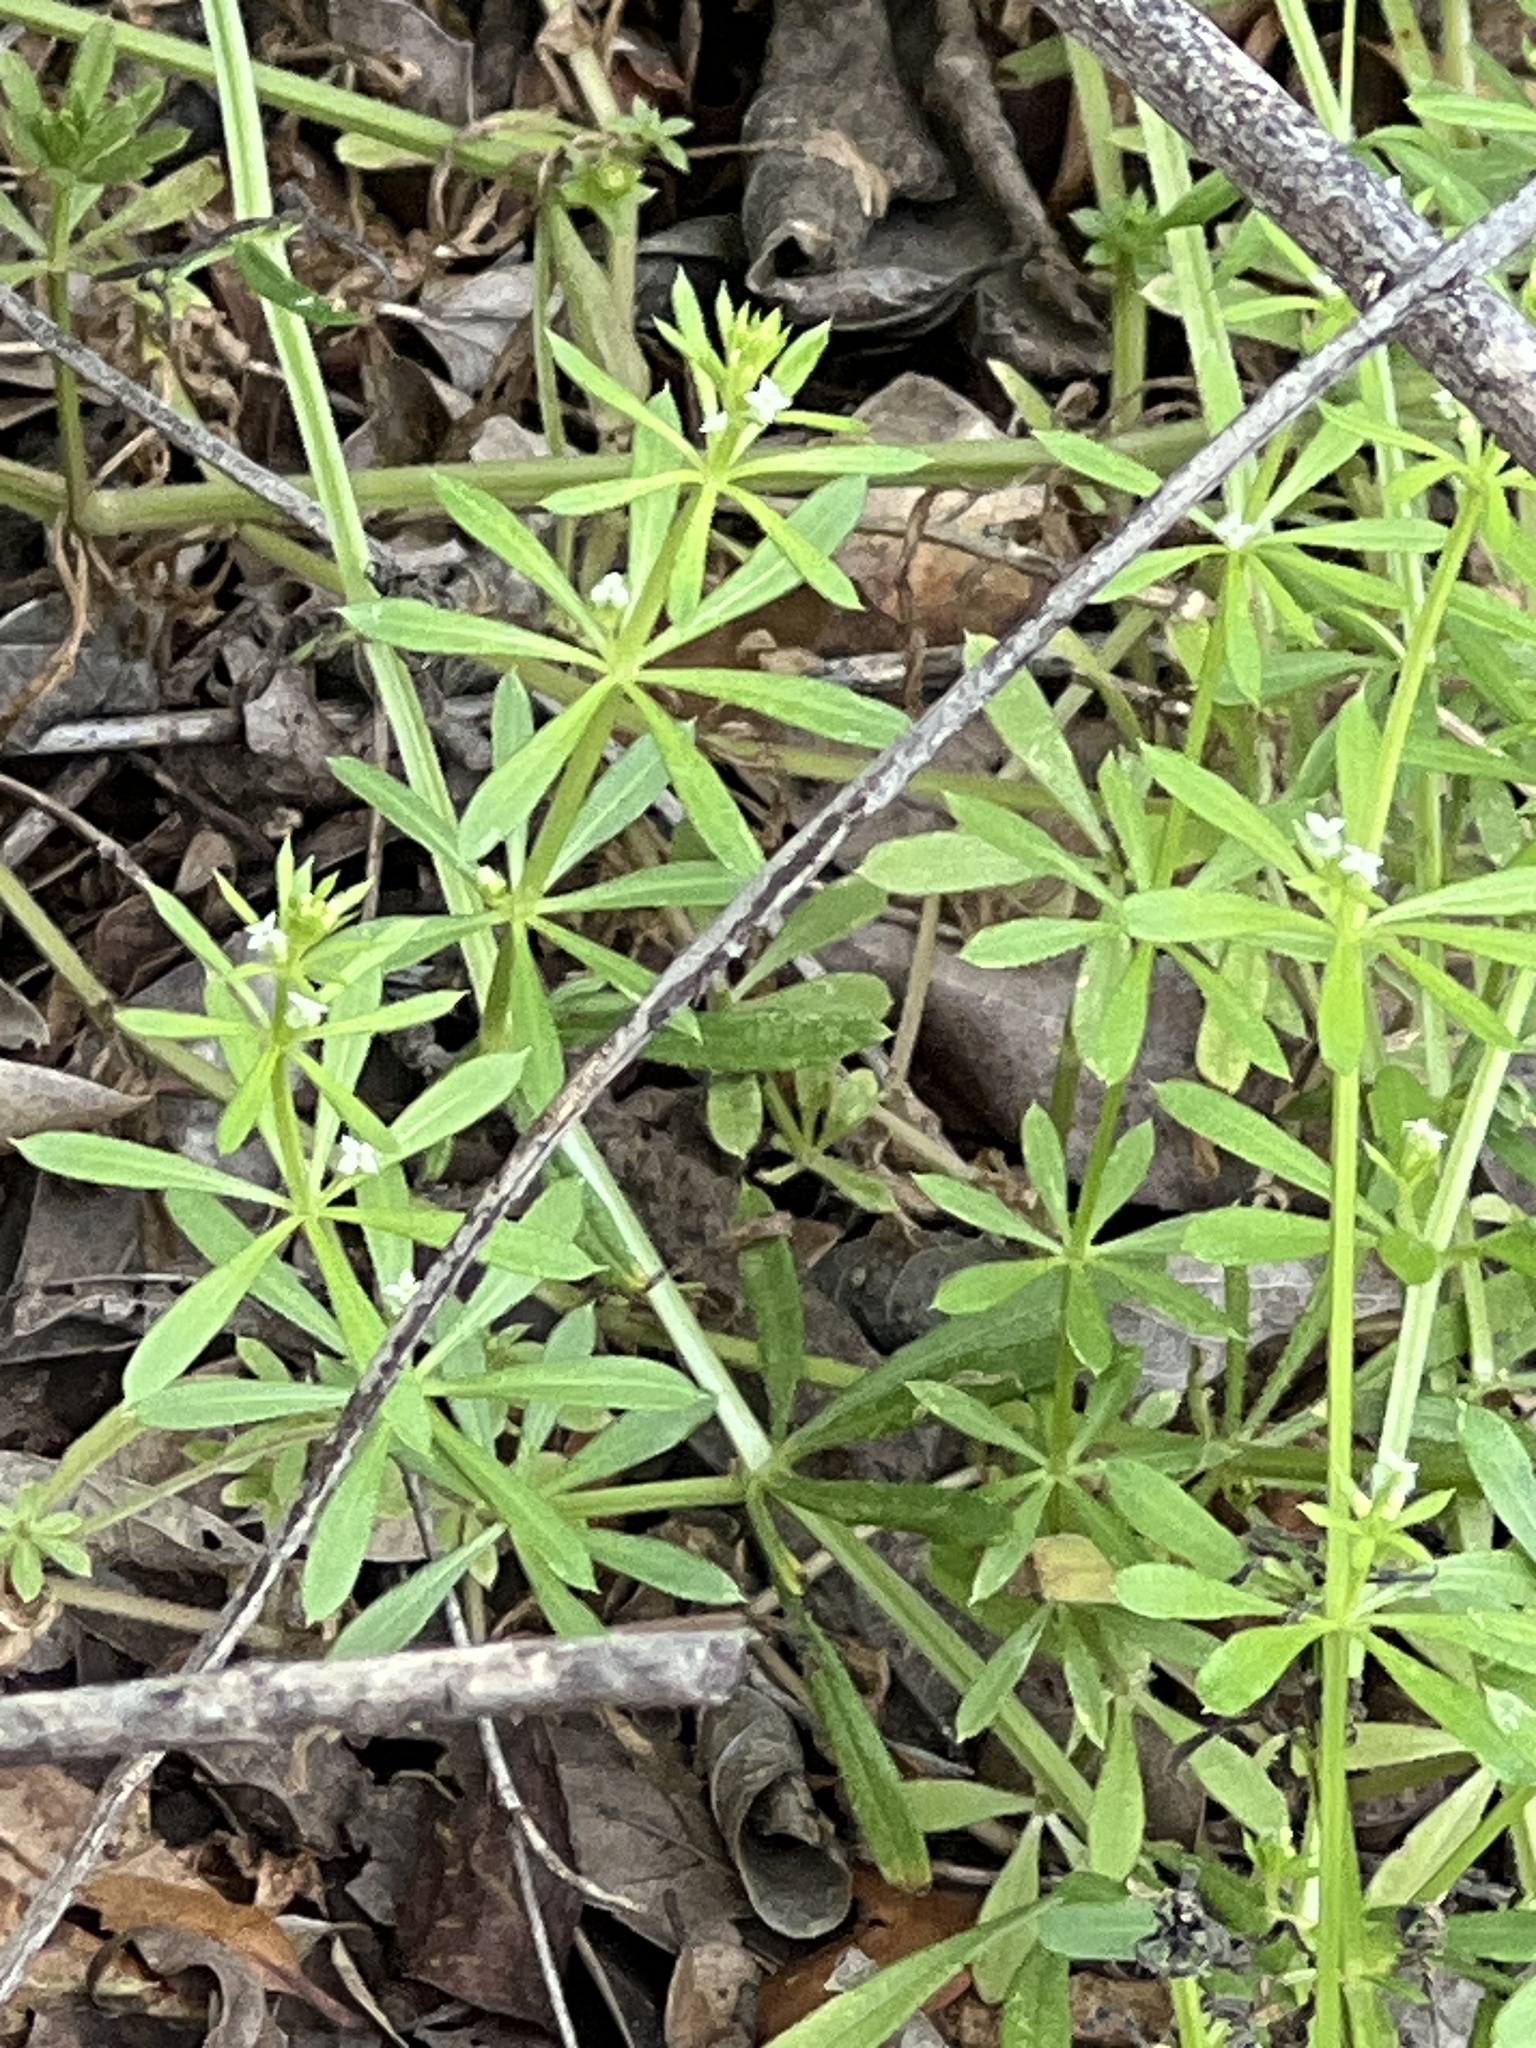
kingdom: Plantae
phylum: Tracheophyta
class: Magnoliopsida
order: Gentianales
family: Rubiaceae
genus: Galium
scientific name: Galium aparine
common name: Cleavers
